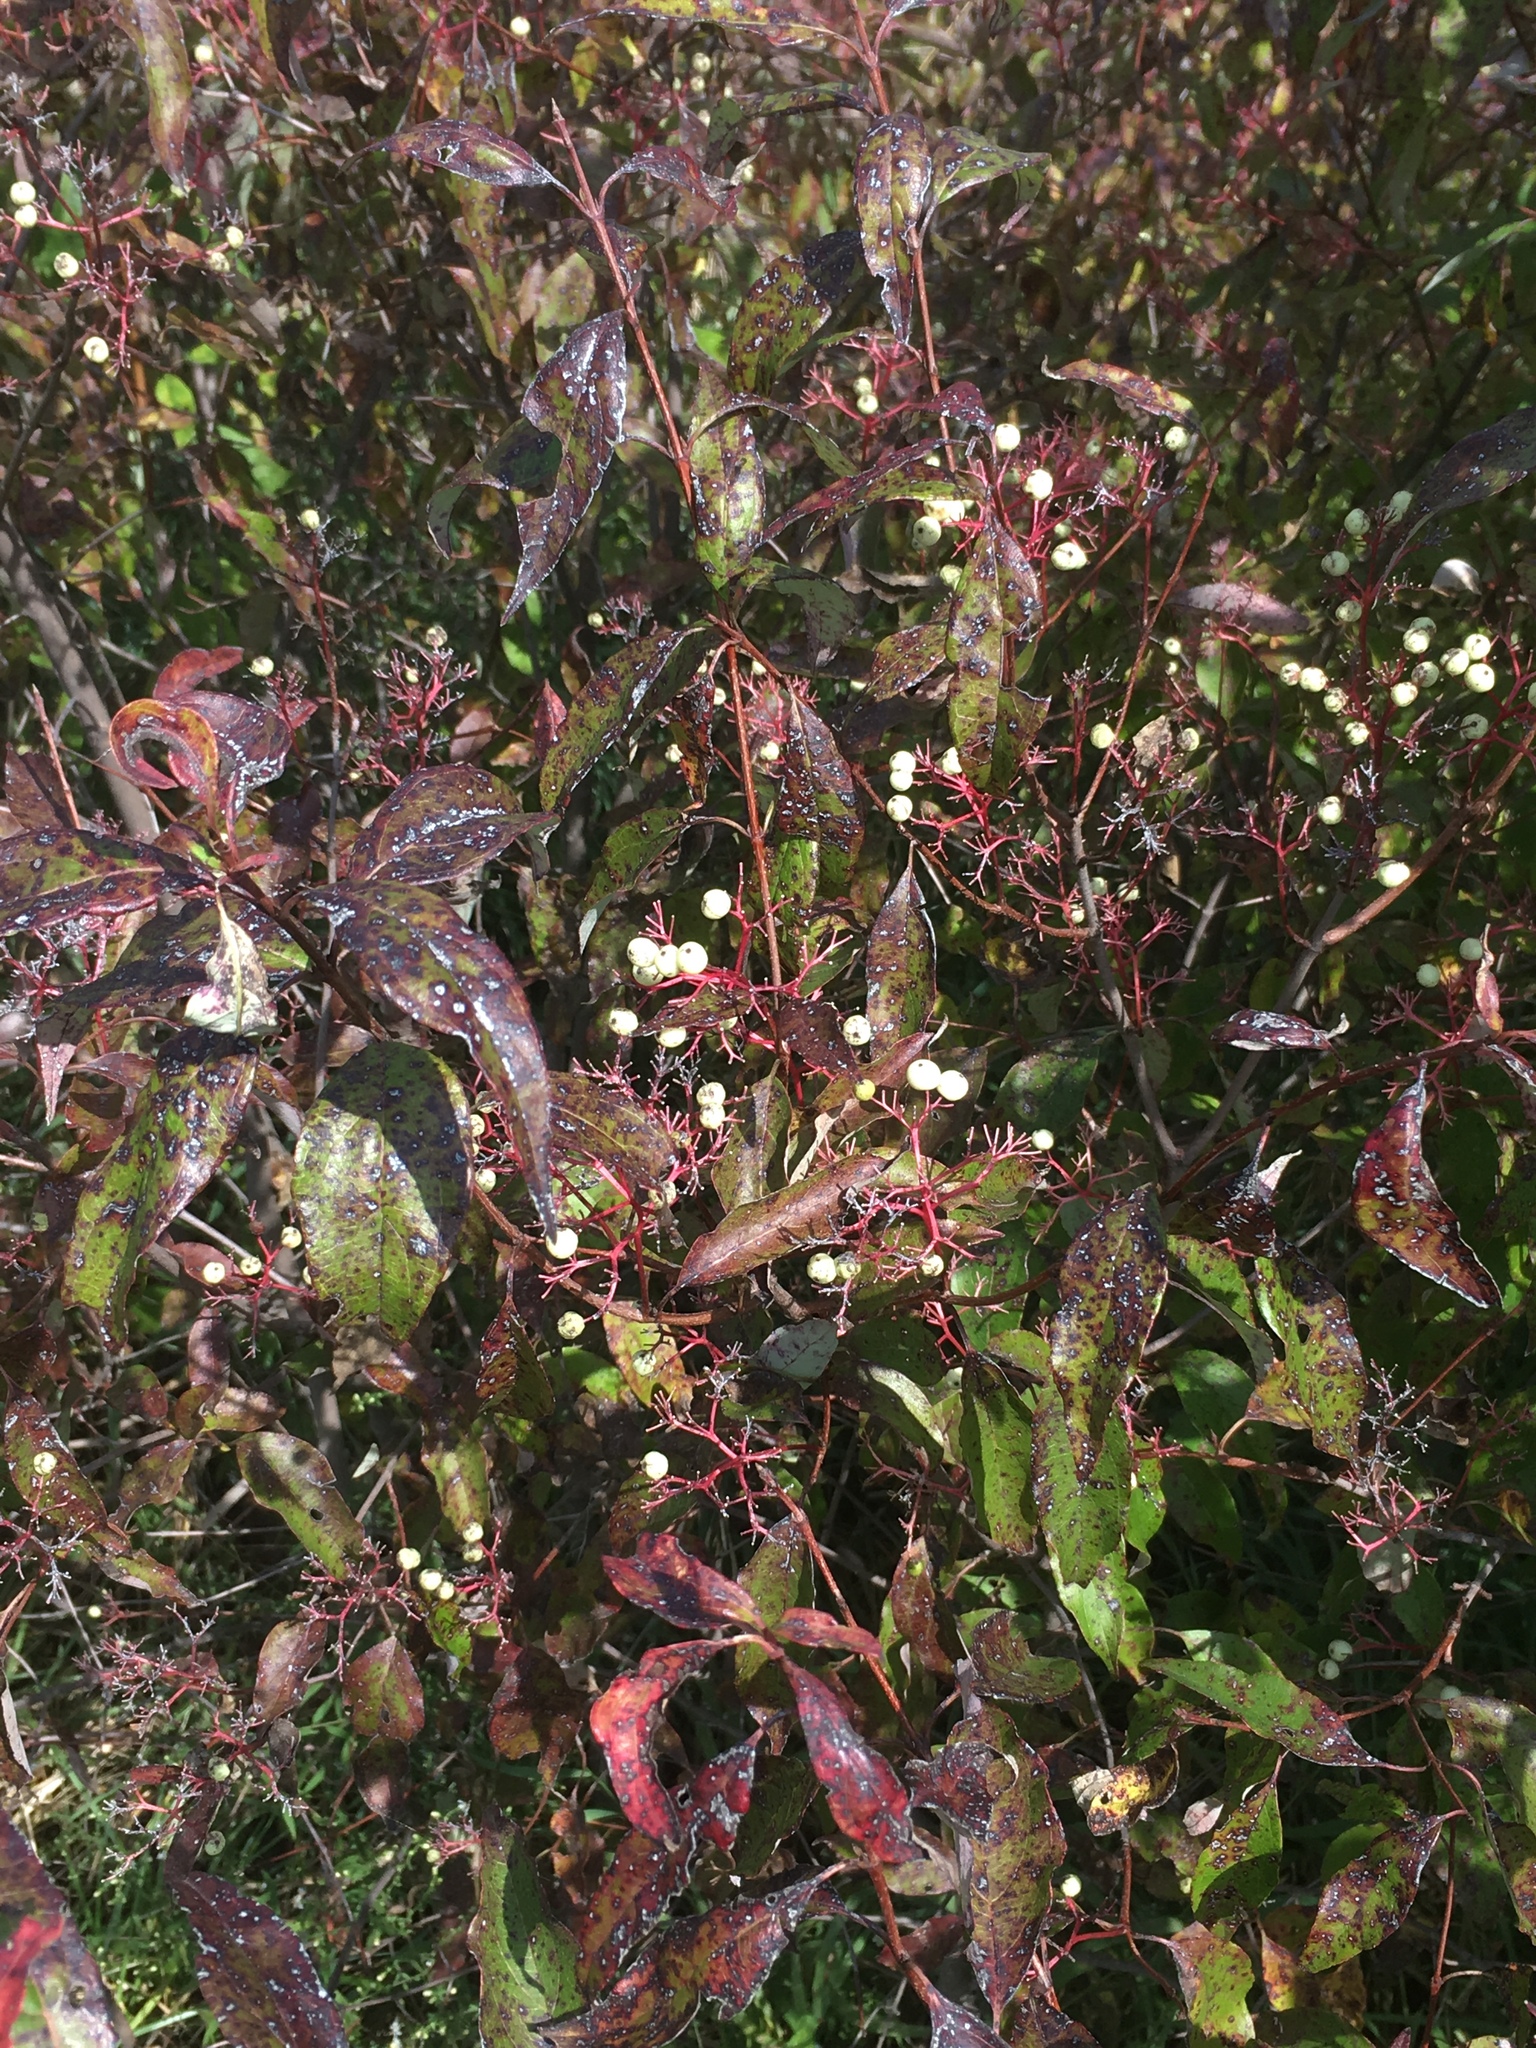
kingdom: Plantae
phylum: Tracheophyta
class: Magnoliopsida
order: Cornales
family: Cornaceae
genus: Cornus
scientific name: Cornus racemosa
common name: Panicled dogwood
